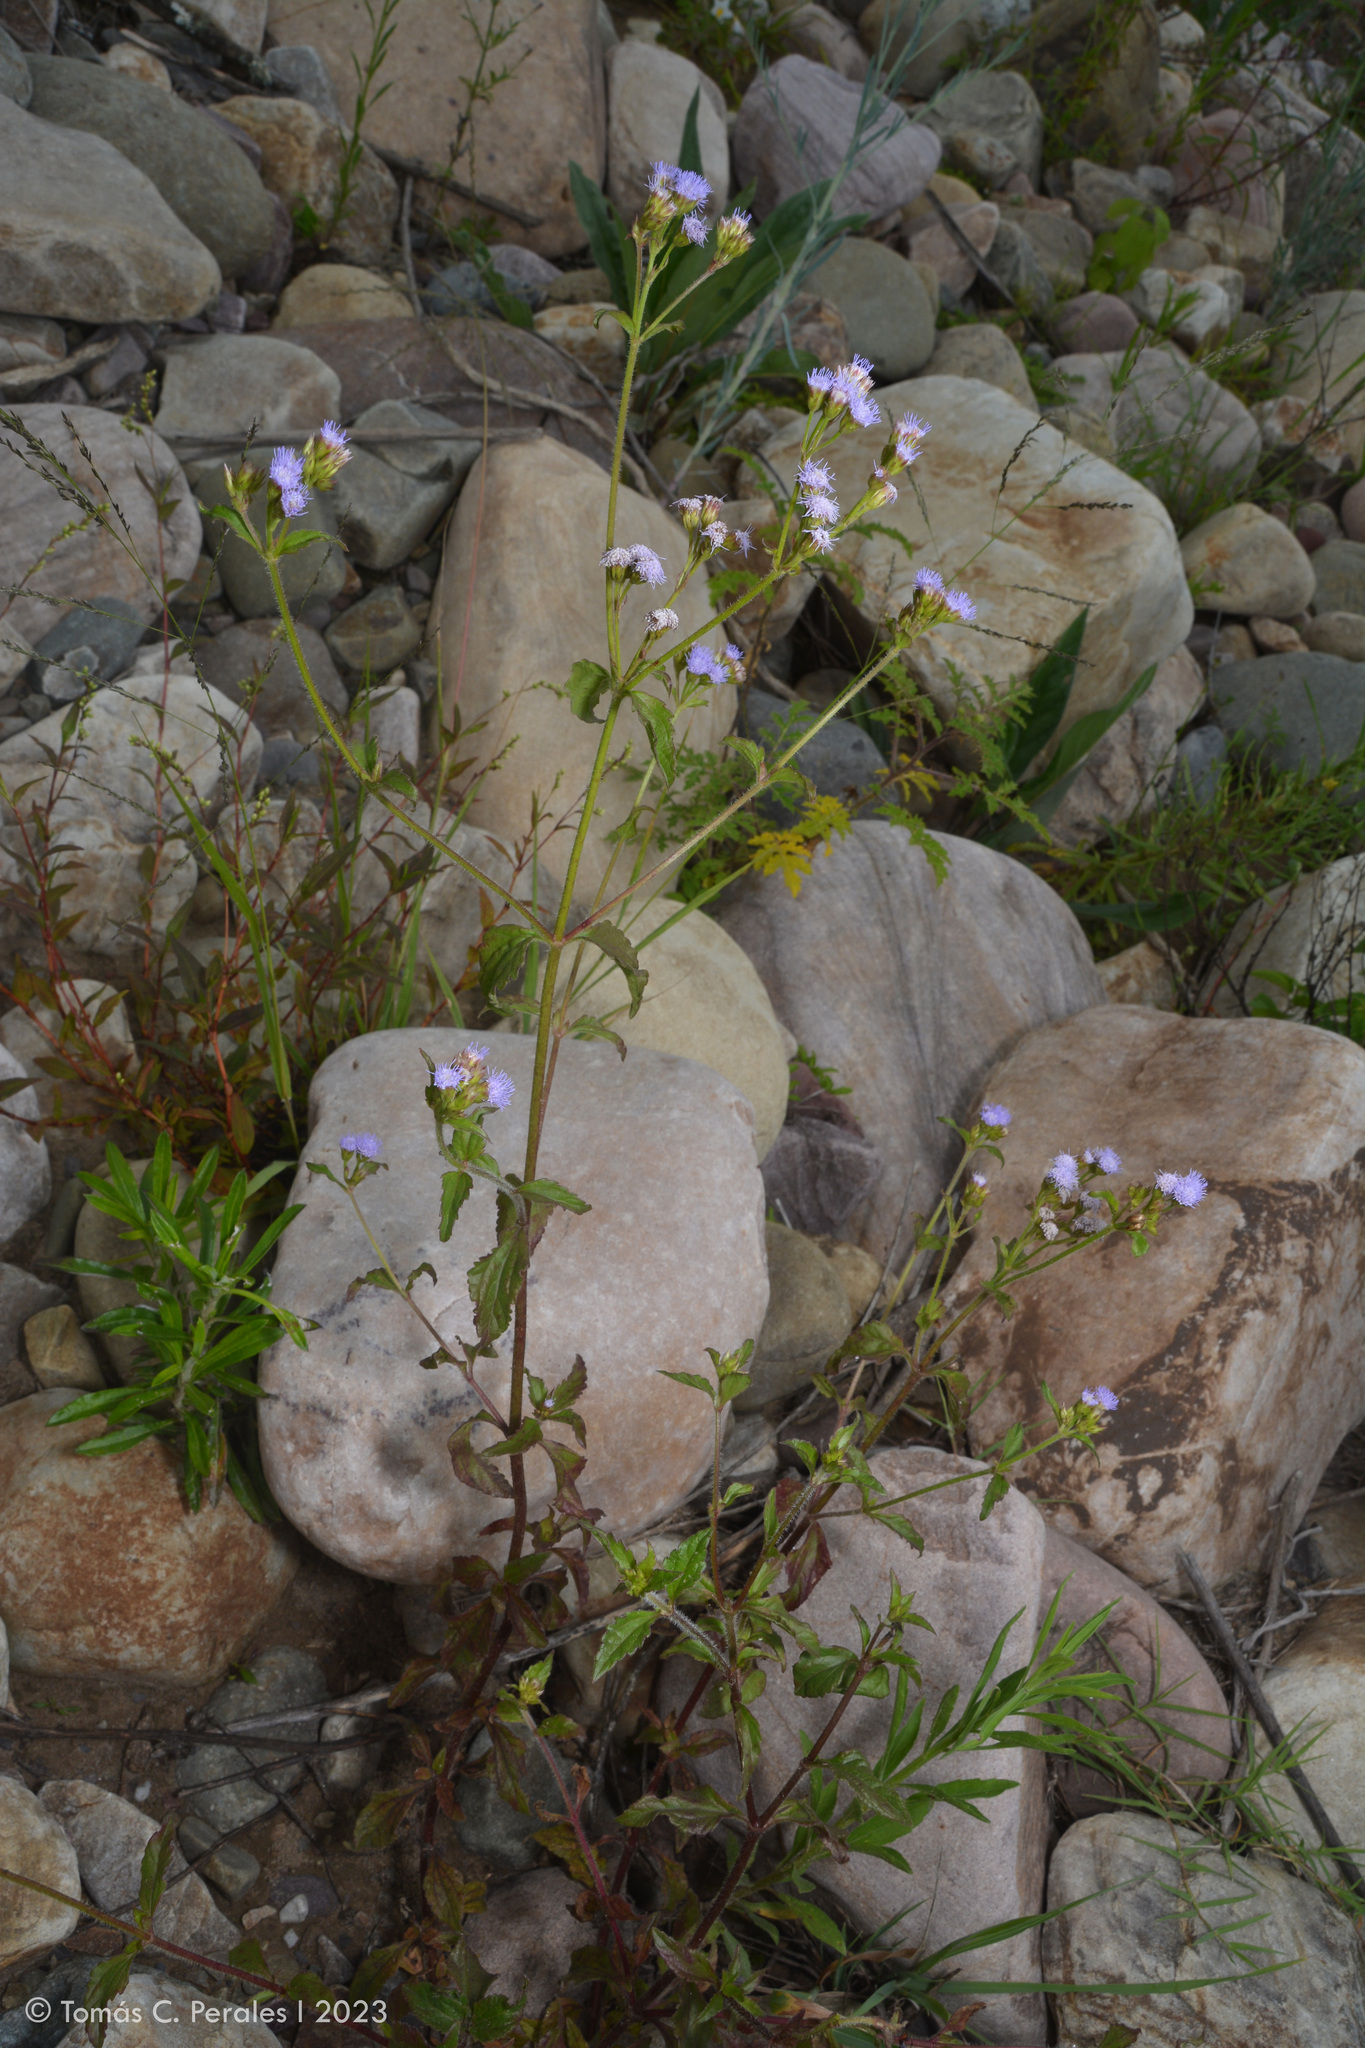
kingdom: Plantae
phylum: Tracheophyta
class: Magnoliopsida
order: Asterales
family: Asteraceae
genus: Praxelis
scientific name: Praxelis clematidea
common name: Praxelis
